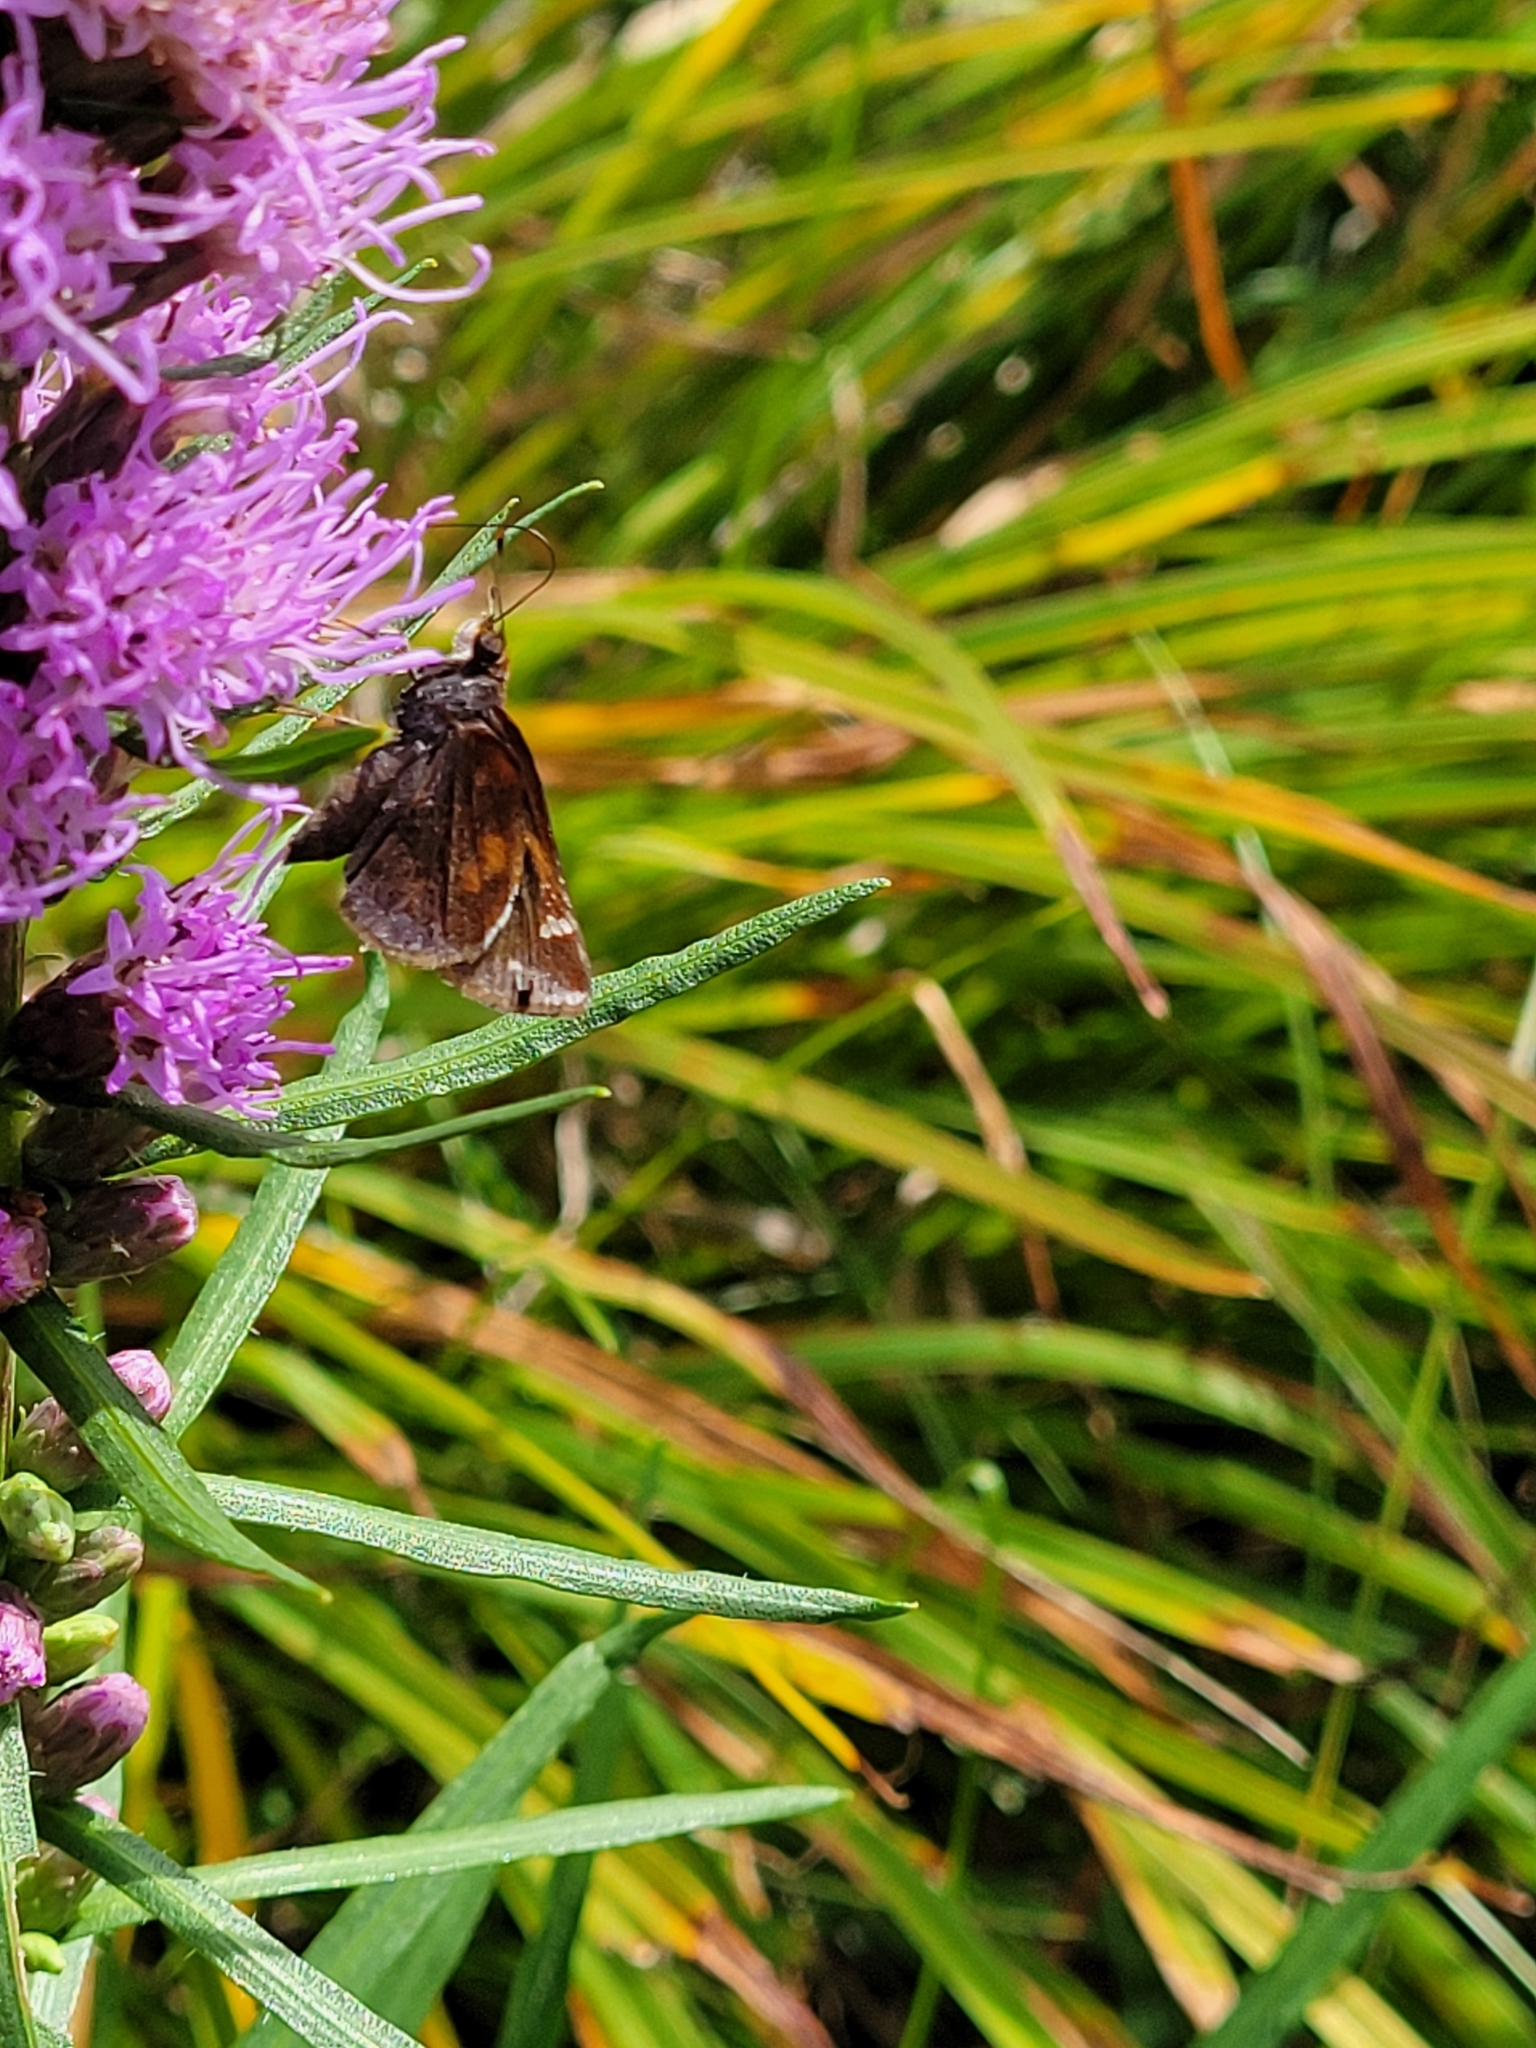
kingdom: Animalia
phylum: Arthropoda
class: Insecta
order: Lepidoptera
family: Hesperiidae
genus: Lon
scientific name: Lon zabulon
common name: Zabulon skipper
